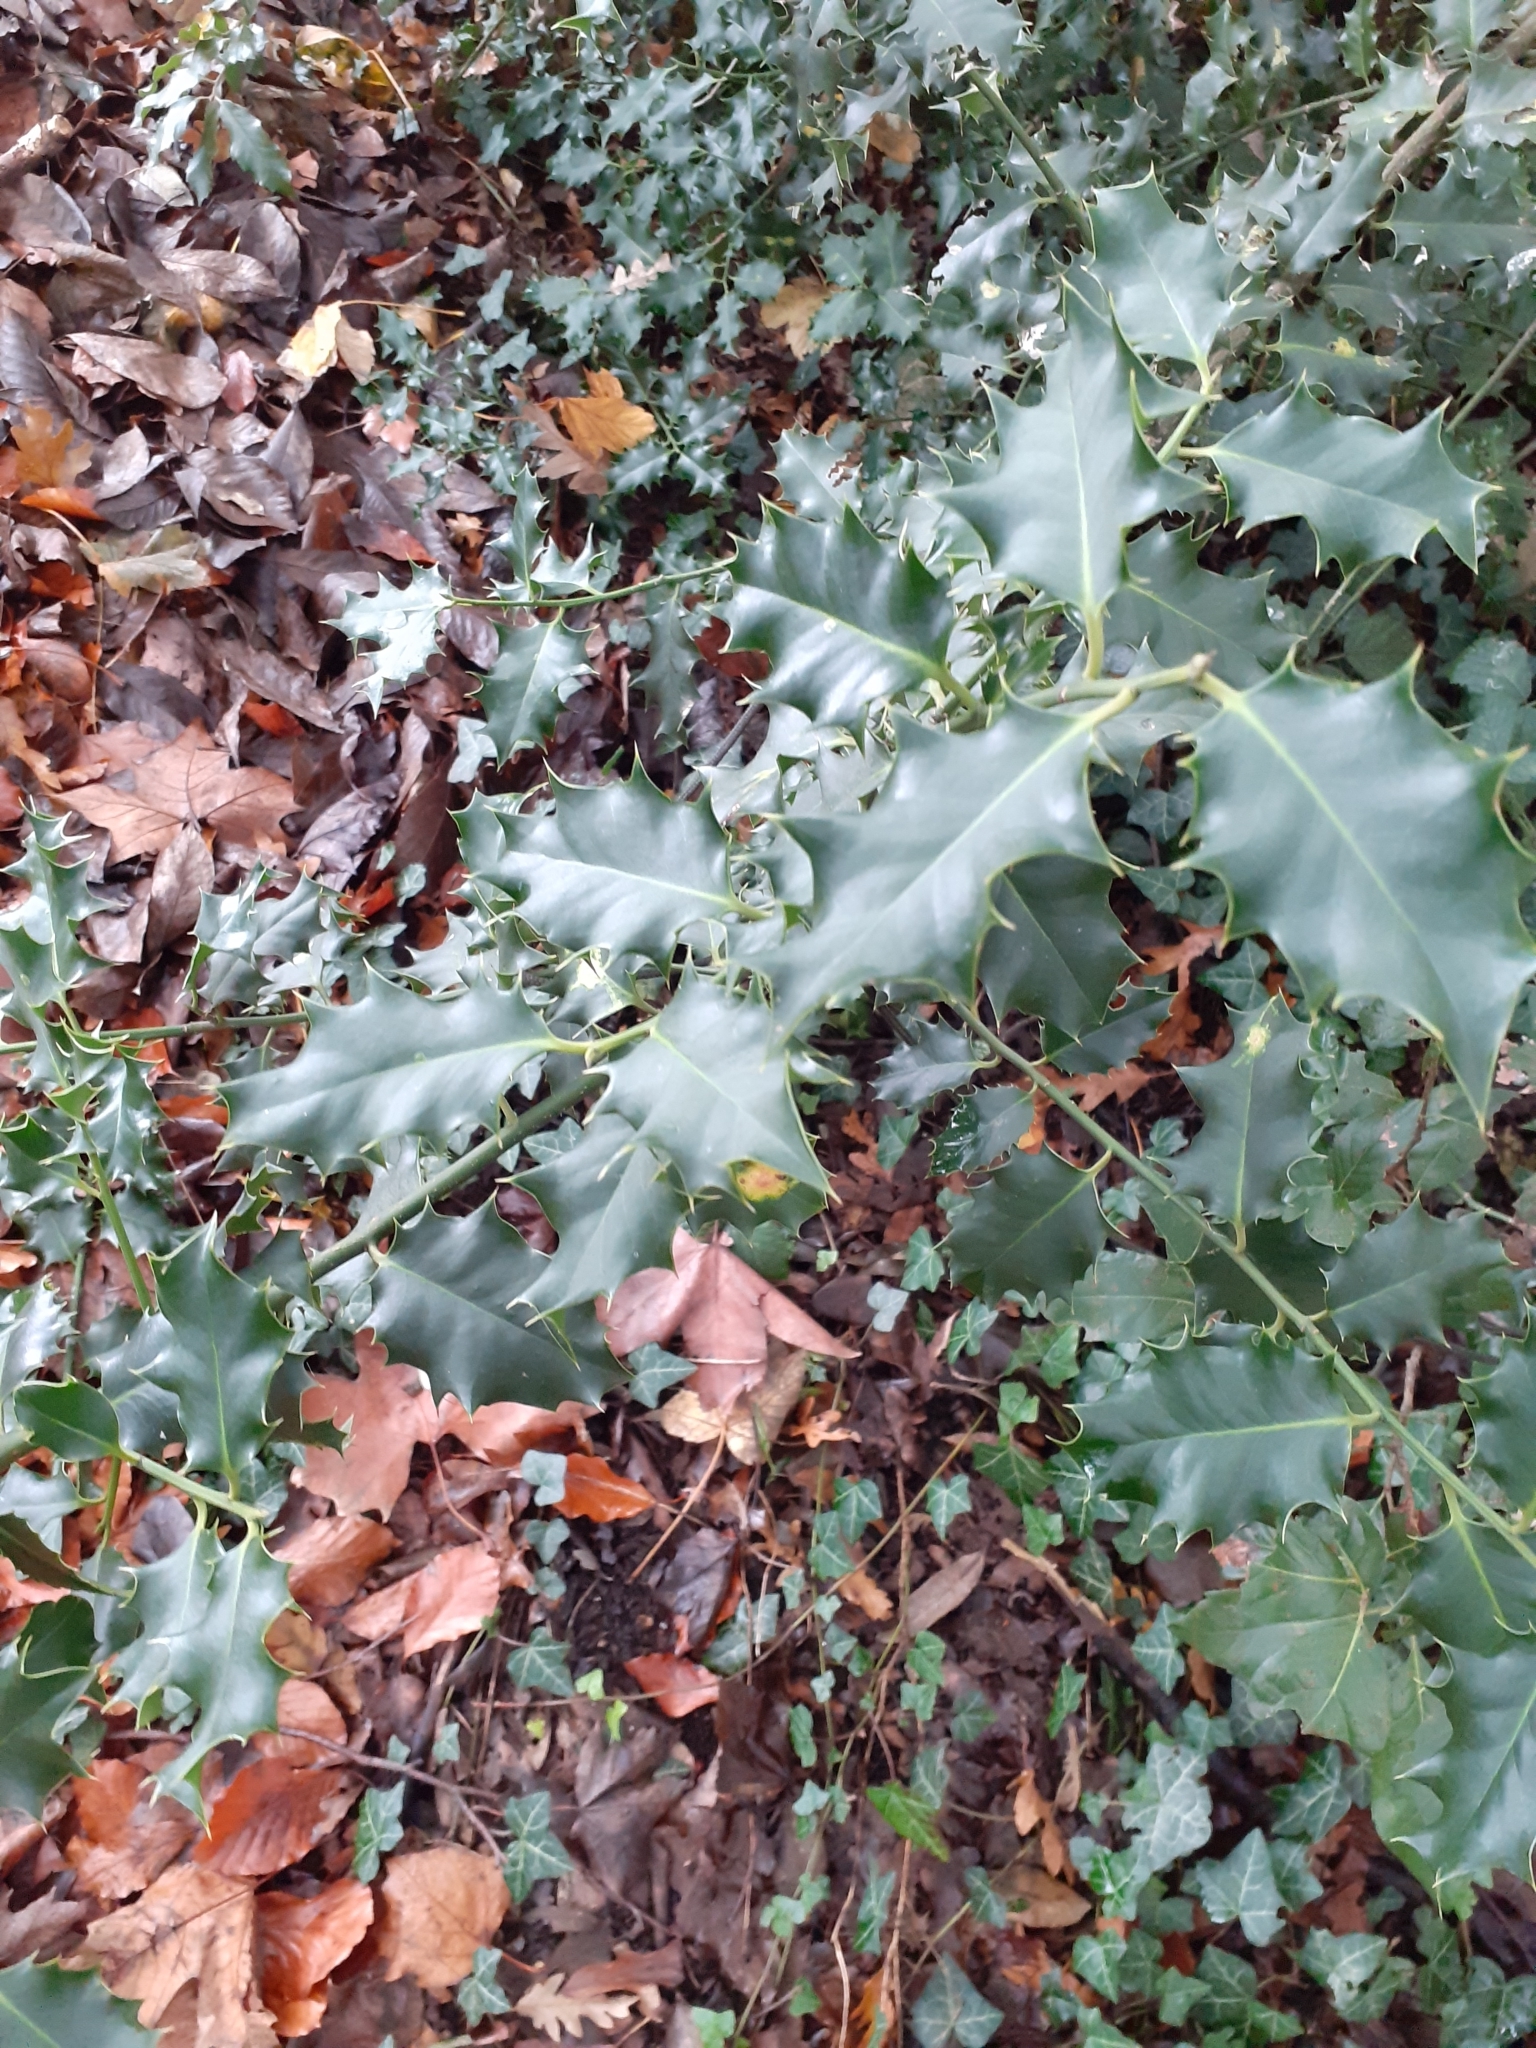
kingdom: Plantae
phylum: Tracheophyta
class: Magnoliopsida
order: Aquifoliales
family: Aquifoliaceae
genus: Ilex
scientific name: Ilex aquifolium
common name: English holly
